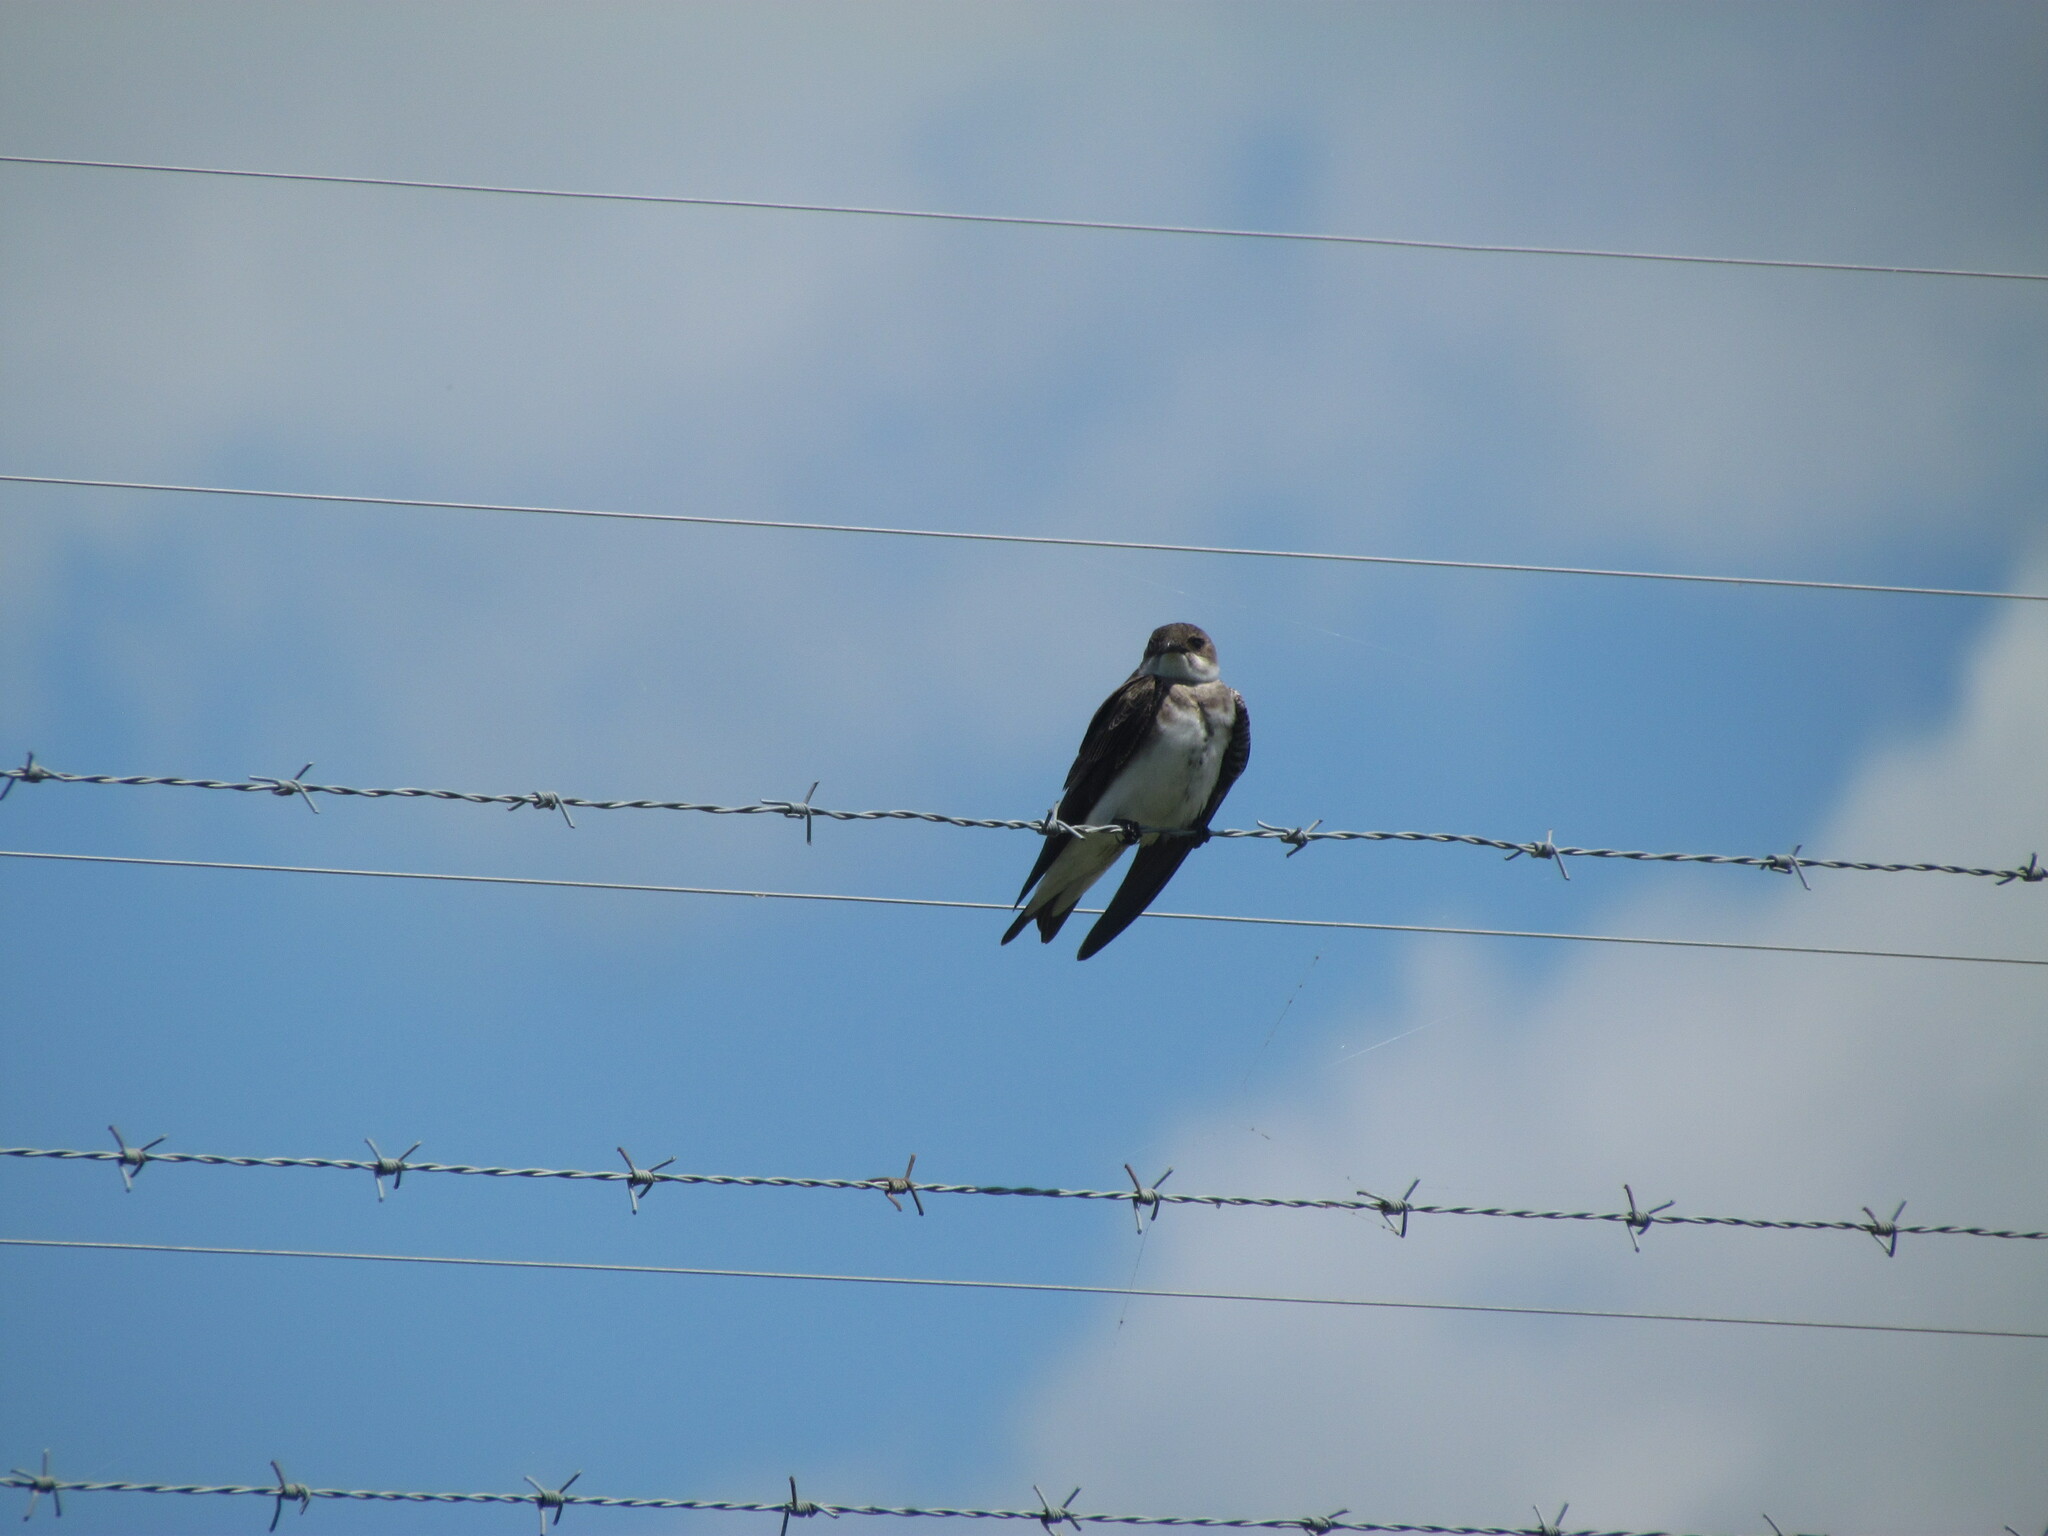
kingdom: Animalia
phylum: Chordata
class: Aves
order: Passeriformes
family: Hirundinidae
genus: Progne
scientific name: Progne tapera
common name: Brown-chested martin
